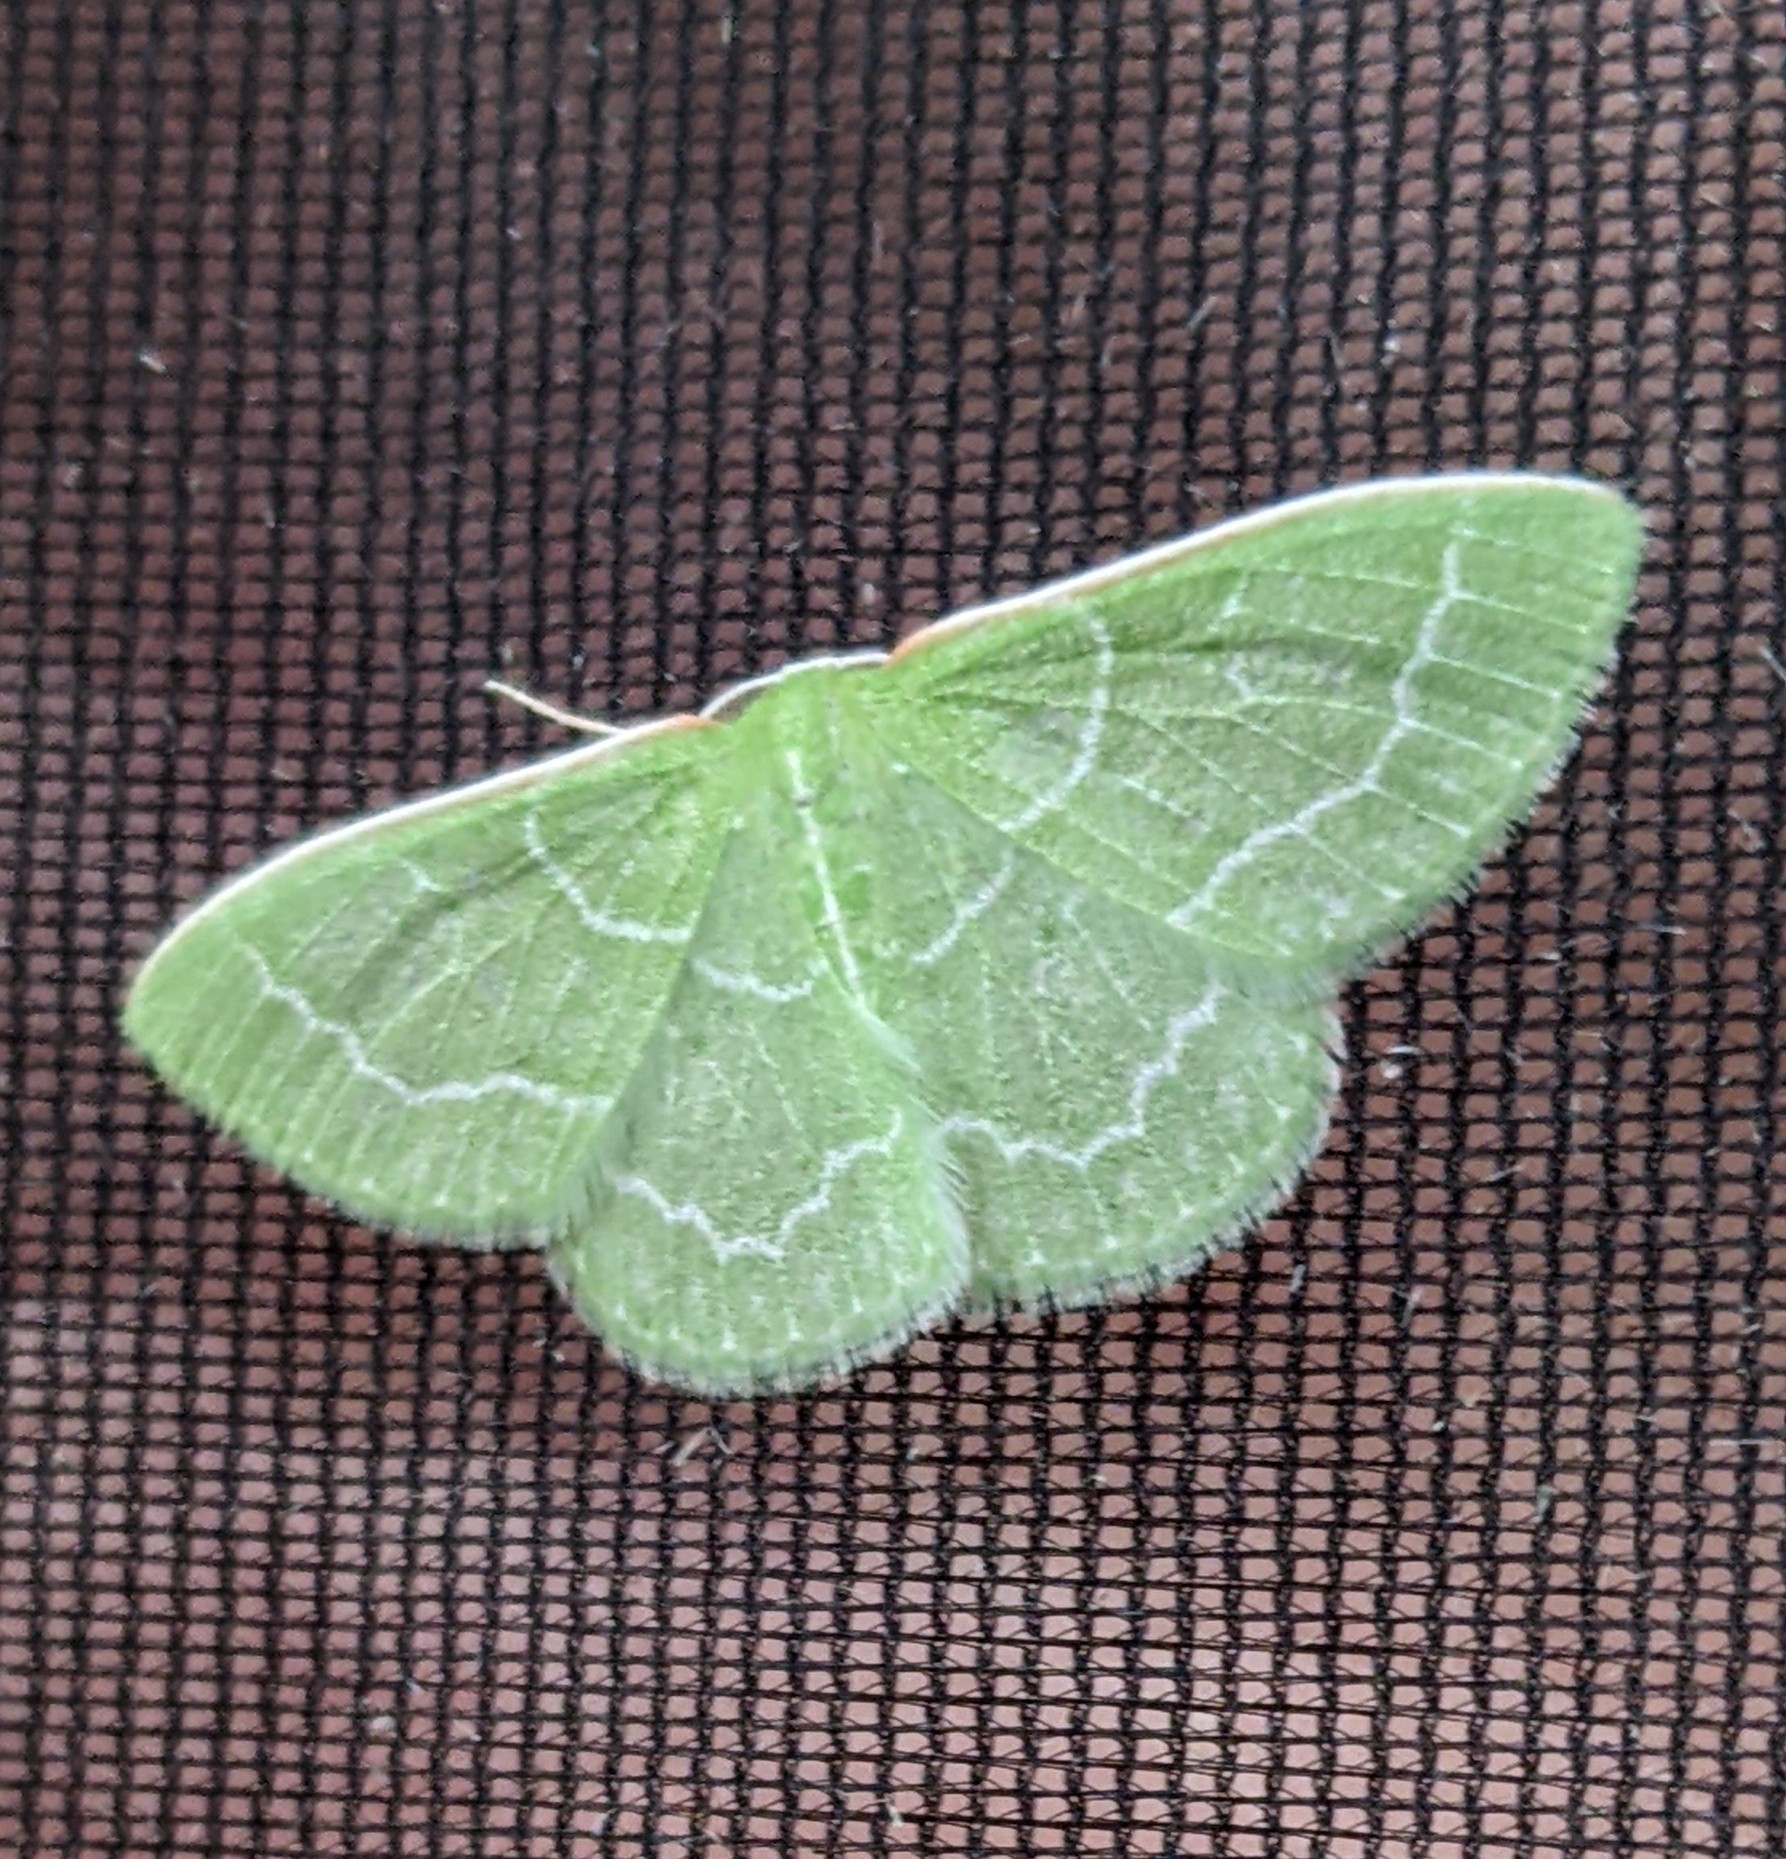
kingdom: Animalia
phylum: Arthropoda
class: Insecta
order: Lepidoptera
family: Geometridae
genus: Synchlora
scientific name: Synchlora aerata
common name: Wavy-lined emerald
